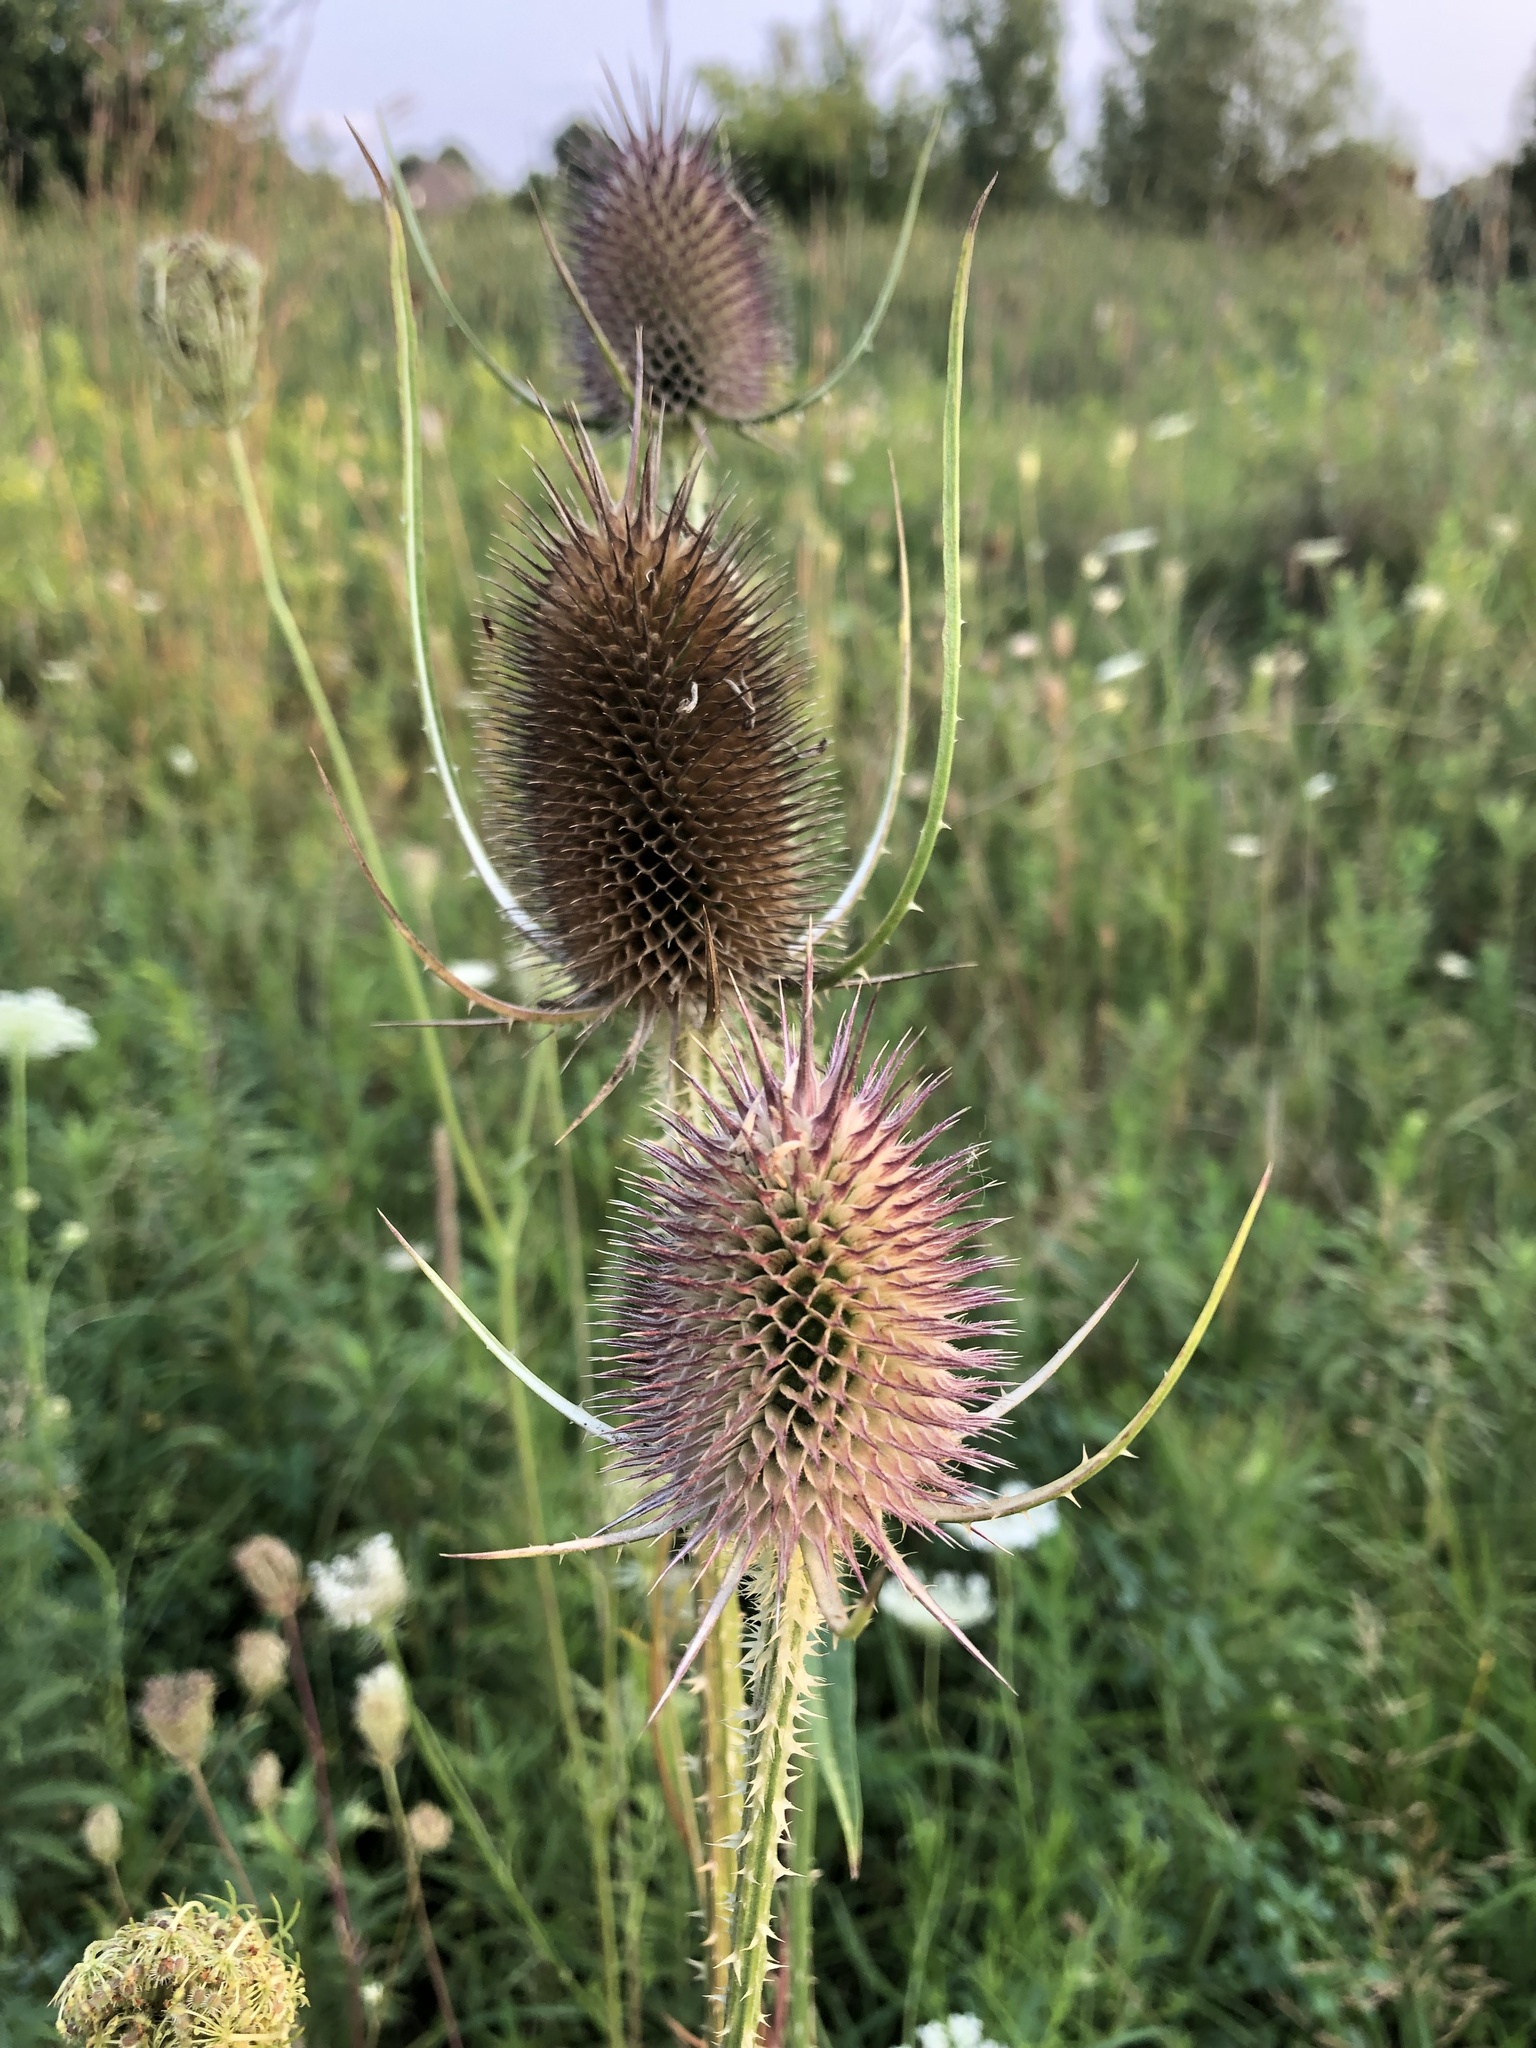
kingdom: Plantae
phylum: Tracheophyta
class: Magnoliopsida
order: Dipsacales
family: Caprifoliaceae
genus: Dipsacus
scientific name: Dipsacus fullonum
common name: Teasel
